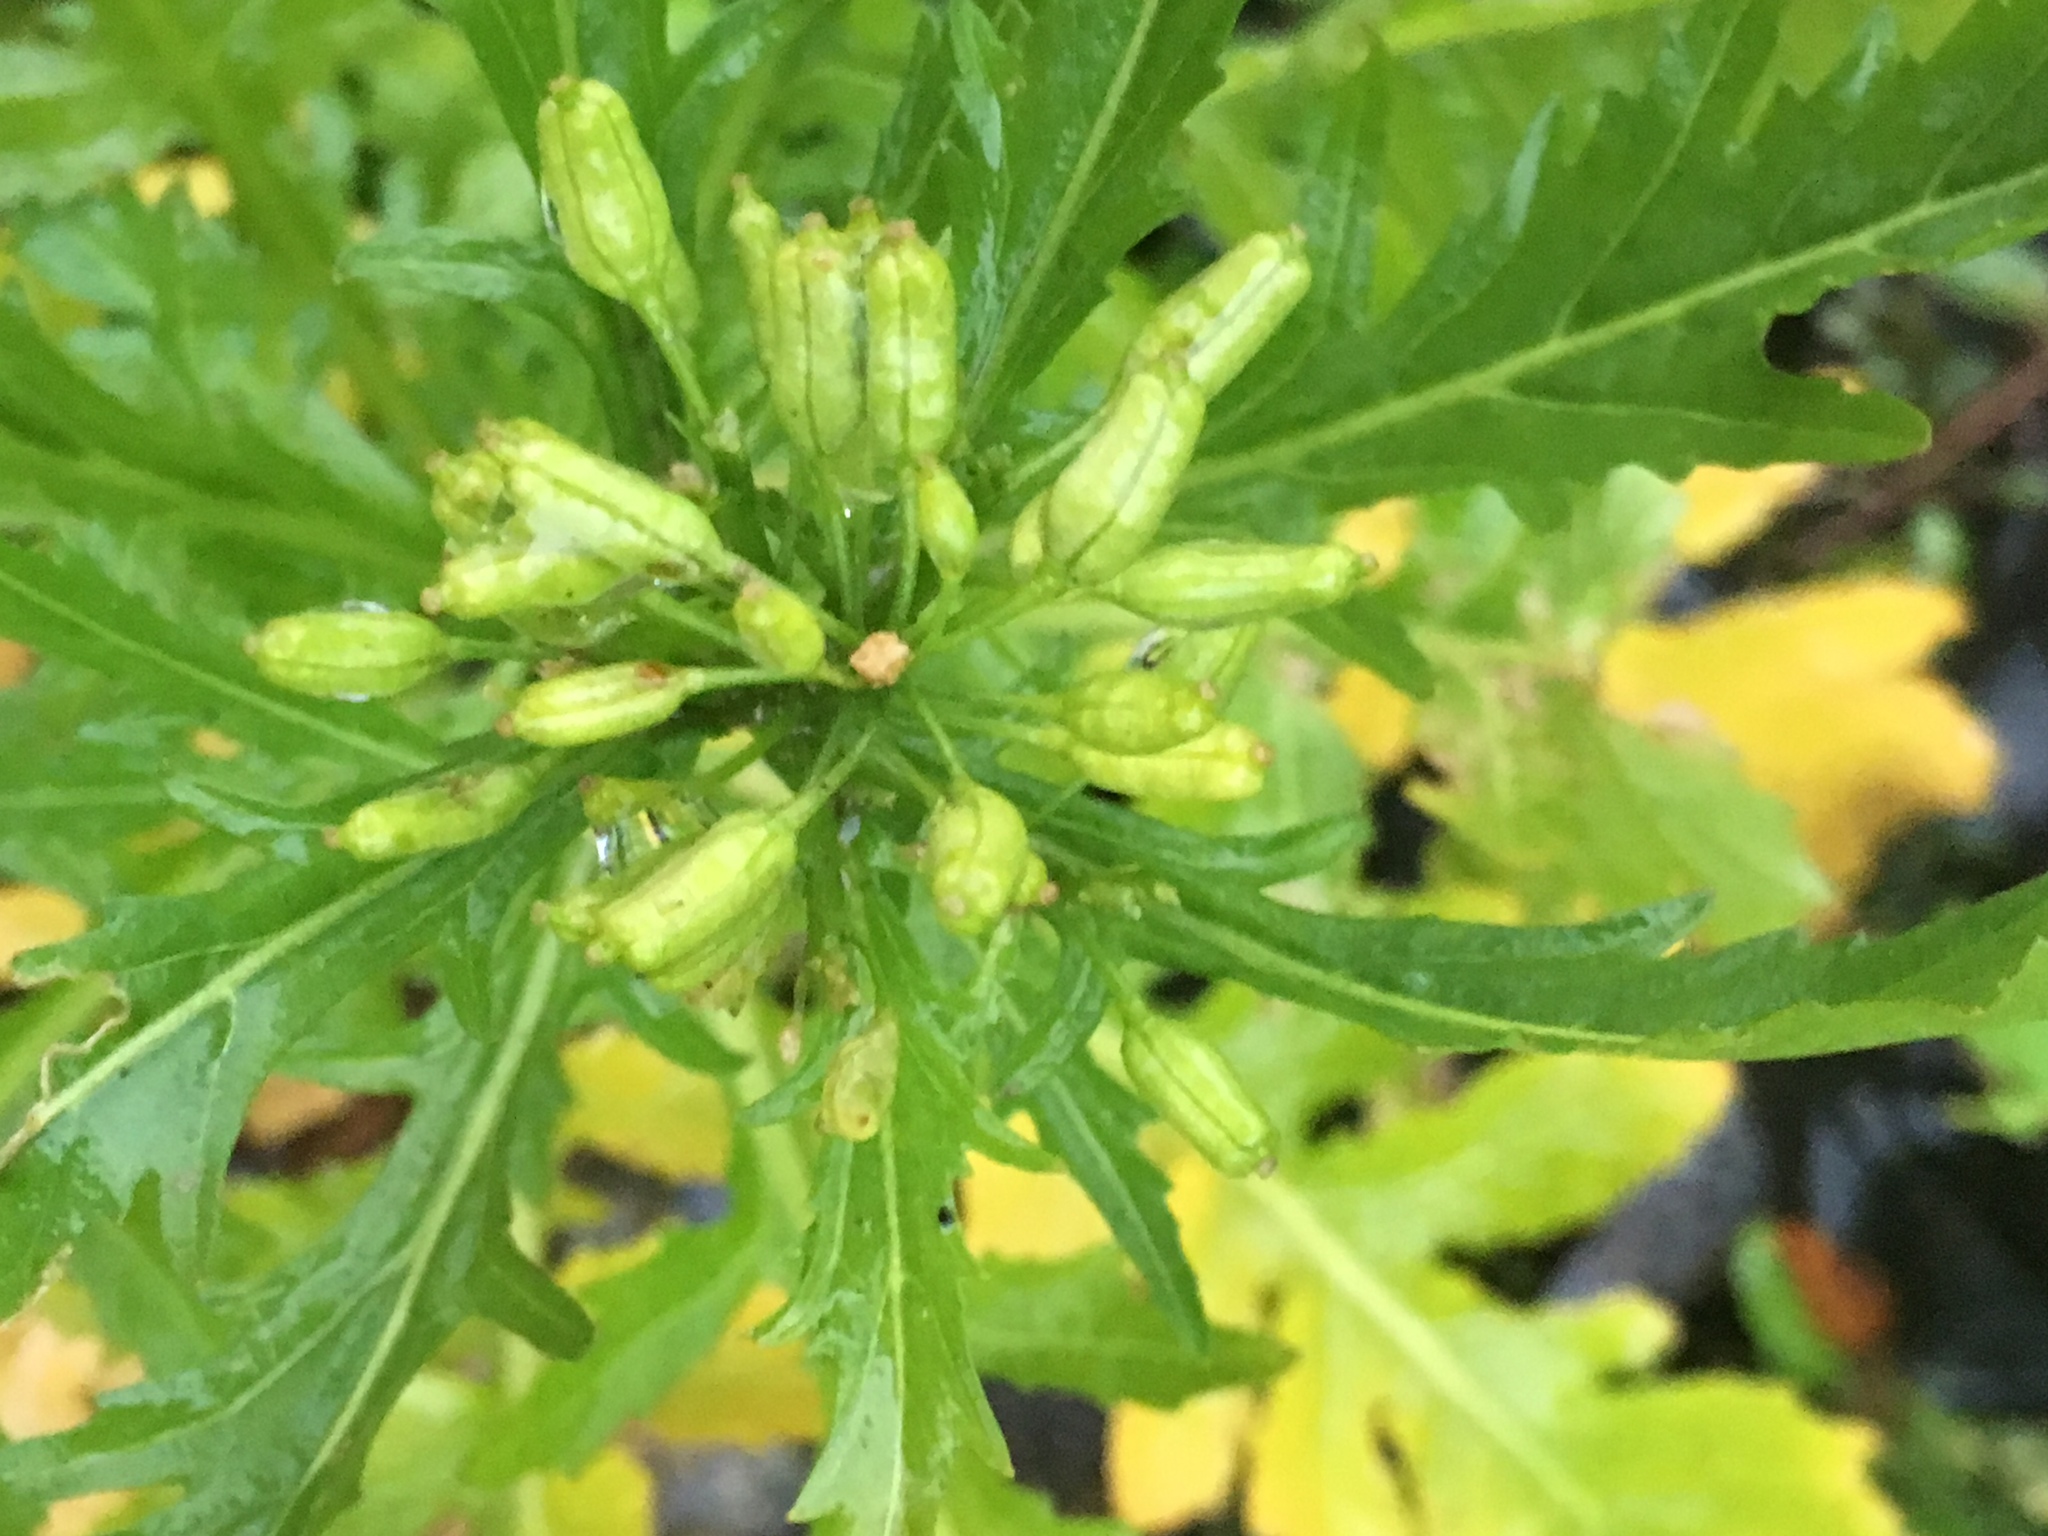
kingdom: Plantae
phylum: Tracheophyta
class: Magnoliopsida
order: Brassicales
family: Brassicaceae
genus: Rorippa
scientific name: Rorippa palustris
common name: Marsh yellow-cress
